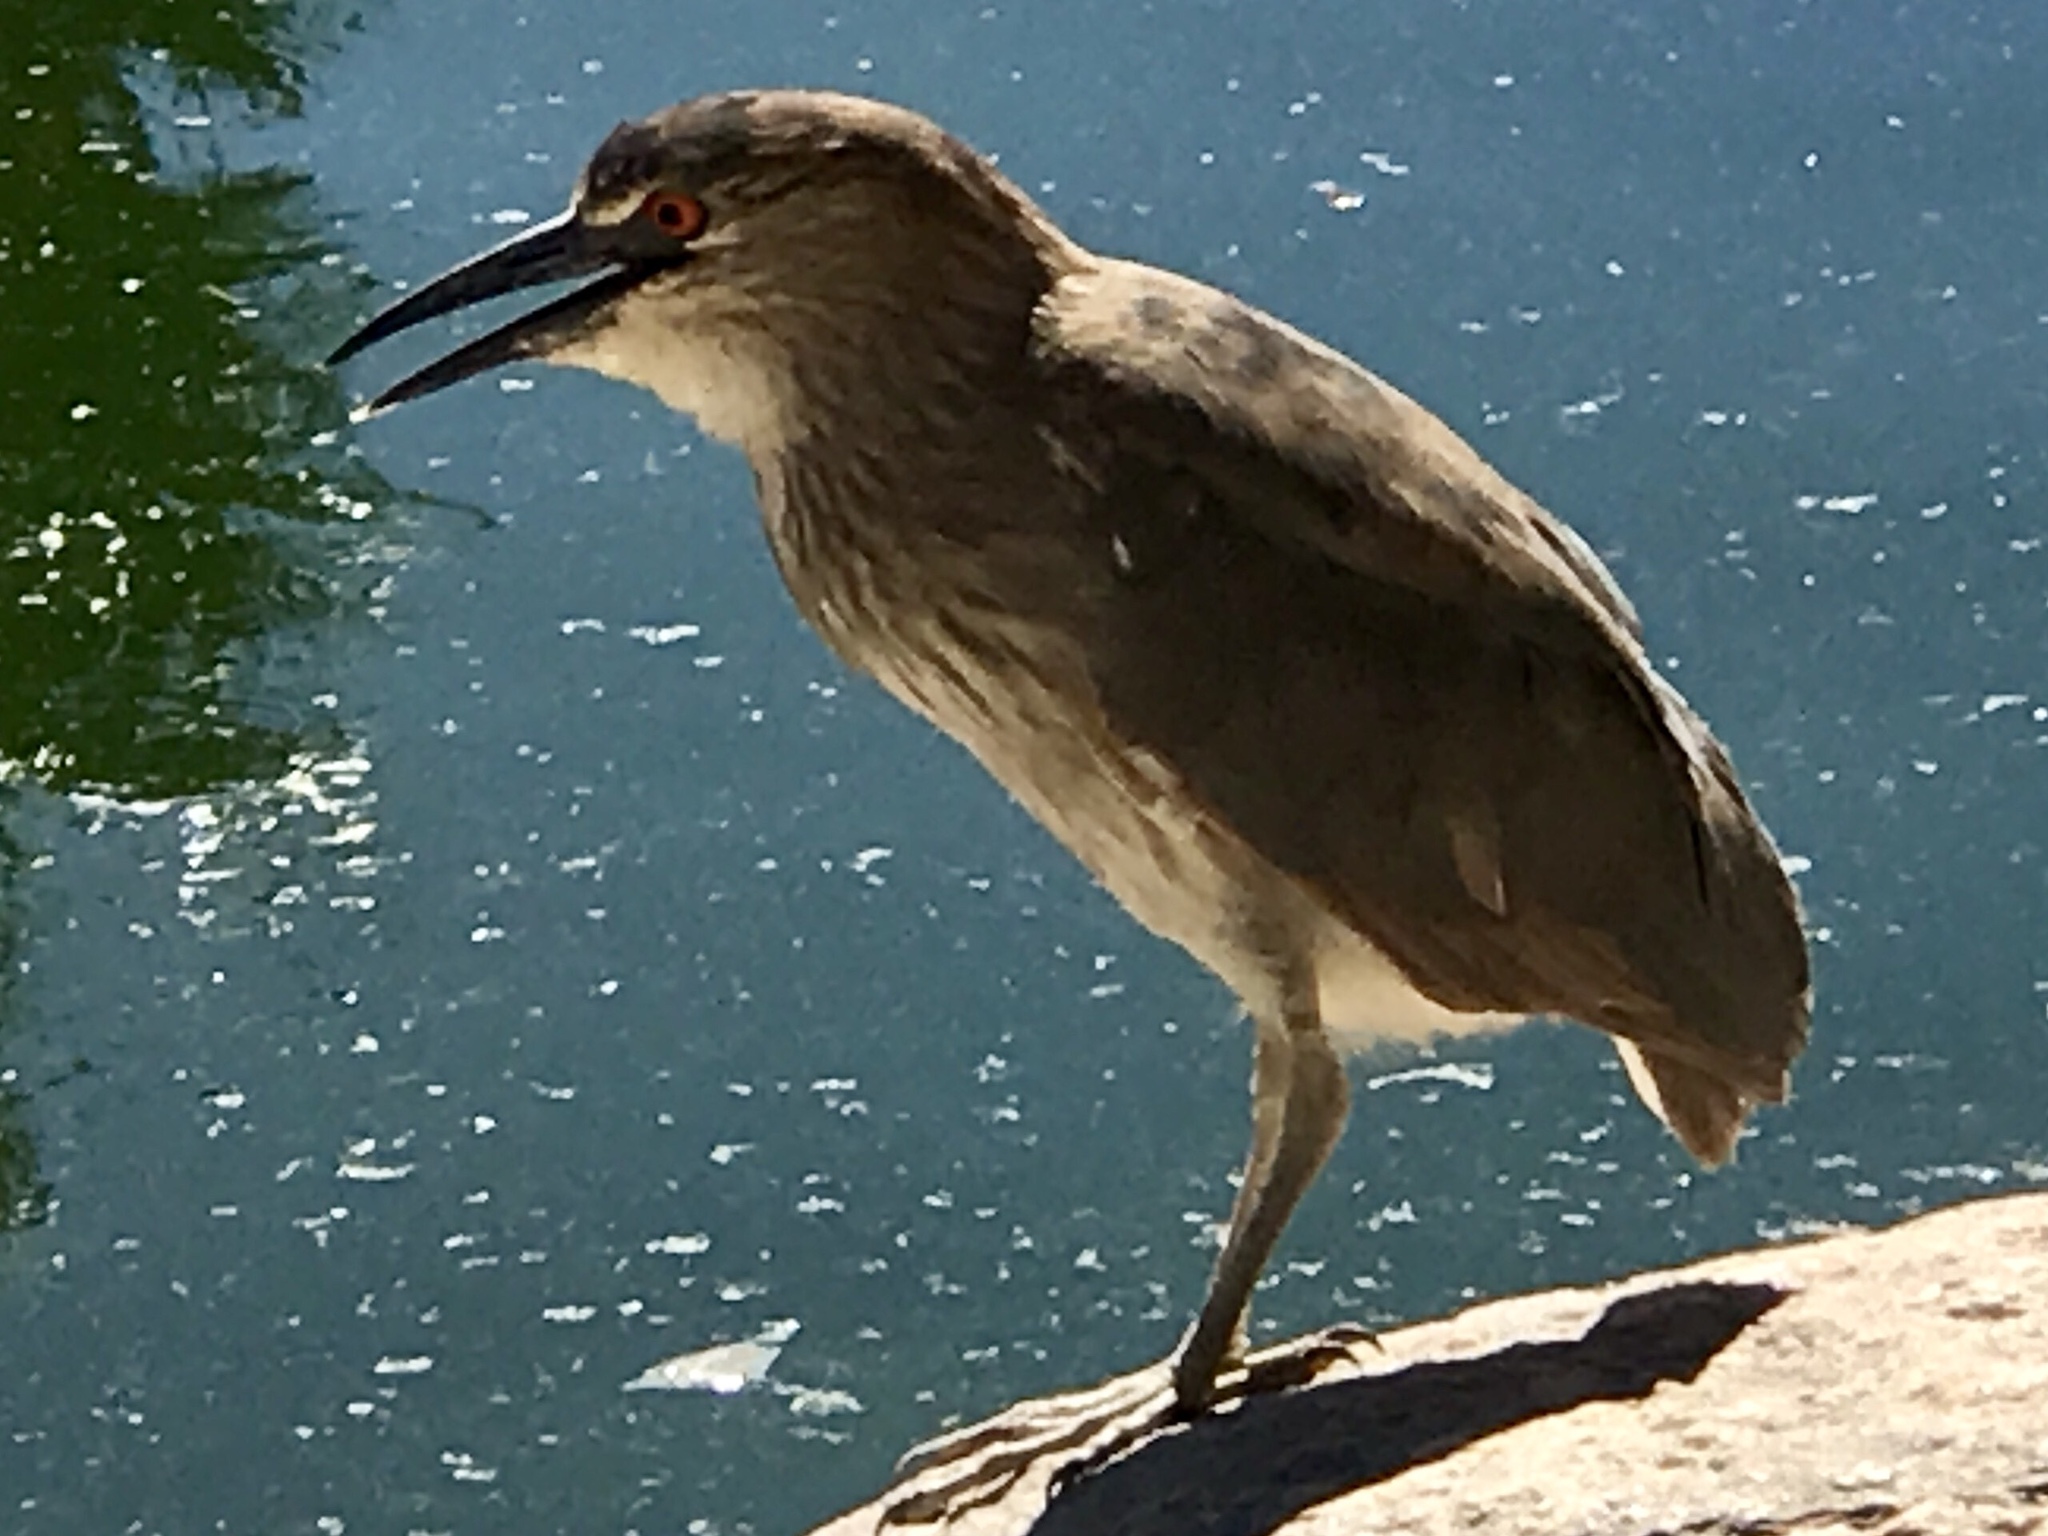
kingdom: Animalia
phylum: Chordata
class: Aves
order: Pelecaniformes
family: Ardeidae
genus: Nycticorax
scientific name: Nycticorax nycticorax
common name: Black-crowned night heron
